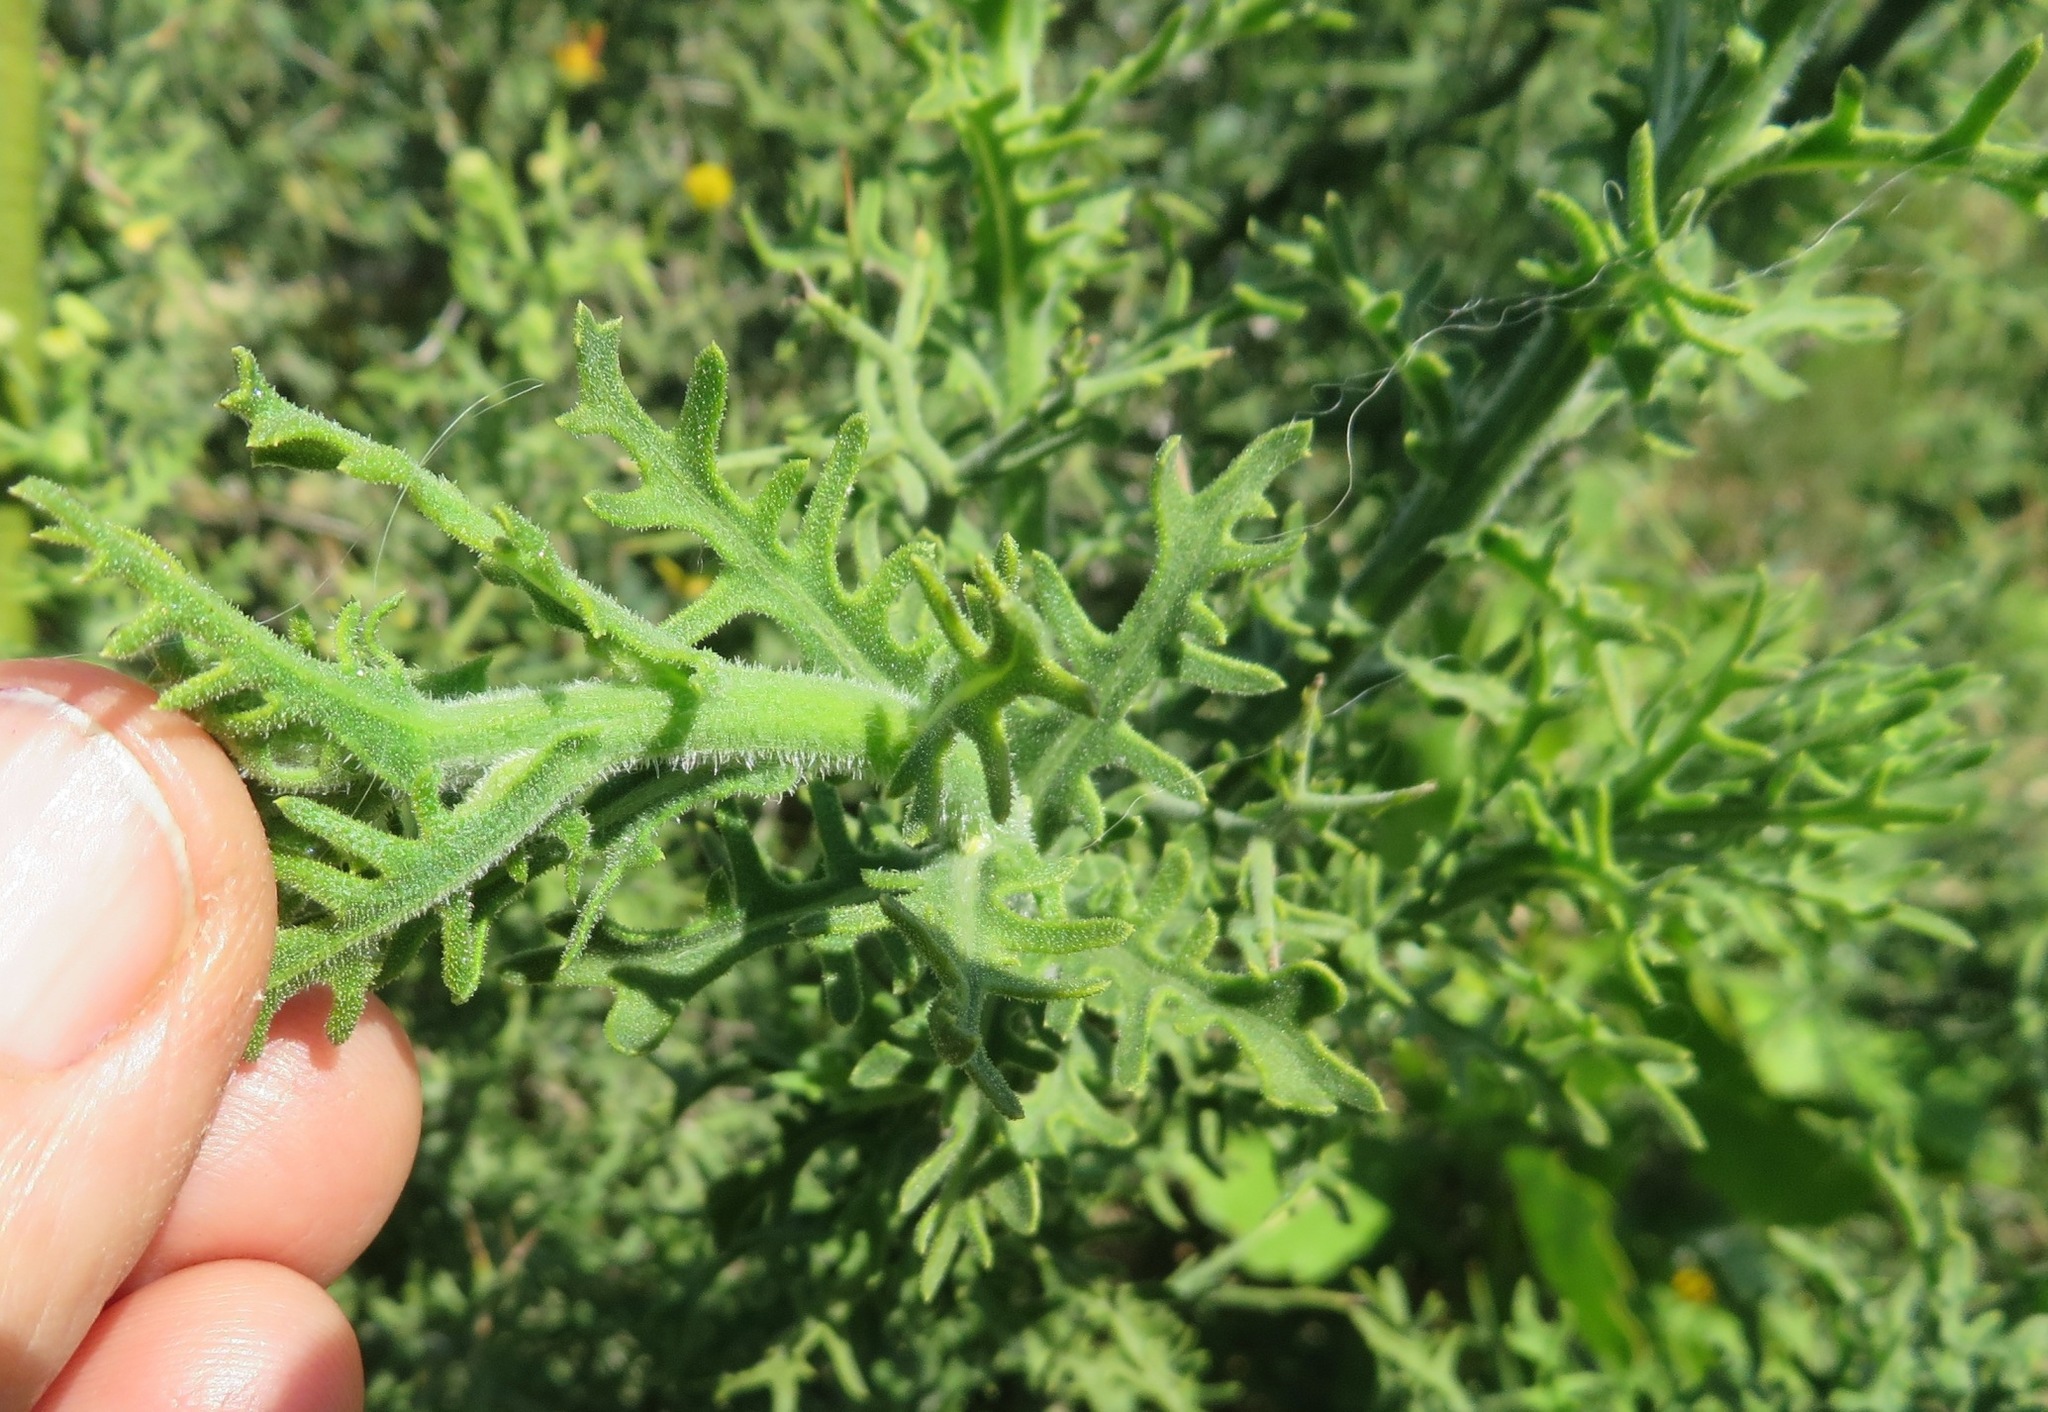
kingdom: Plantae
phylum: Tracheophyta
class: Magnoliopsida
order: Asterales
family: Asteraceae
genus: Osteospermum
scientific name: Osteospermum spinosum
